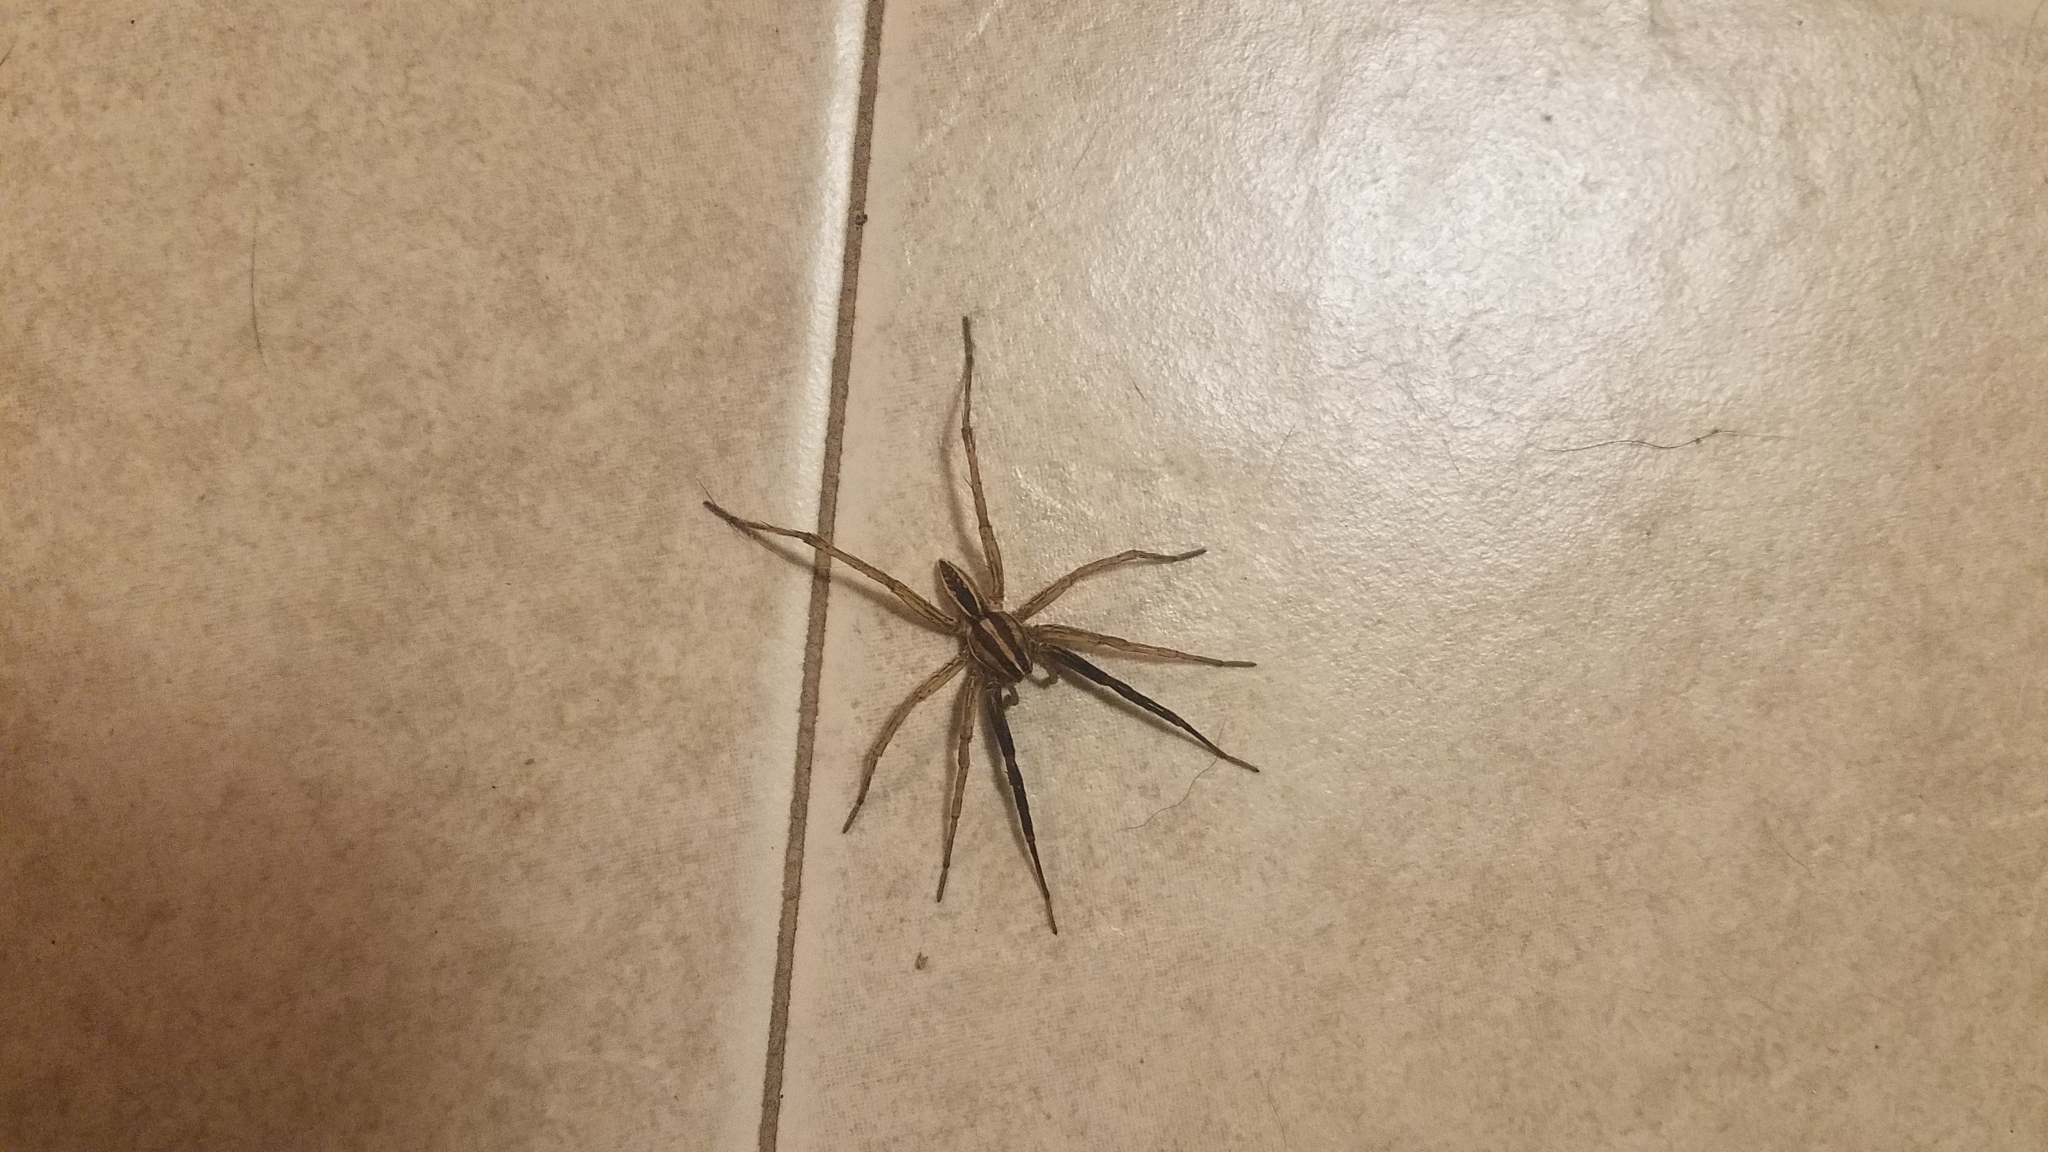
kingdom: Animalia
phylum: Arthropoda
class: Arachnida
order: Araneae
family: Lycosidae
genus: Rabidosa
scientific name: Rabidosa rabida
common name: Rabid wolf spider
